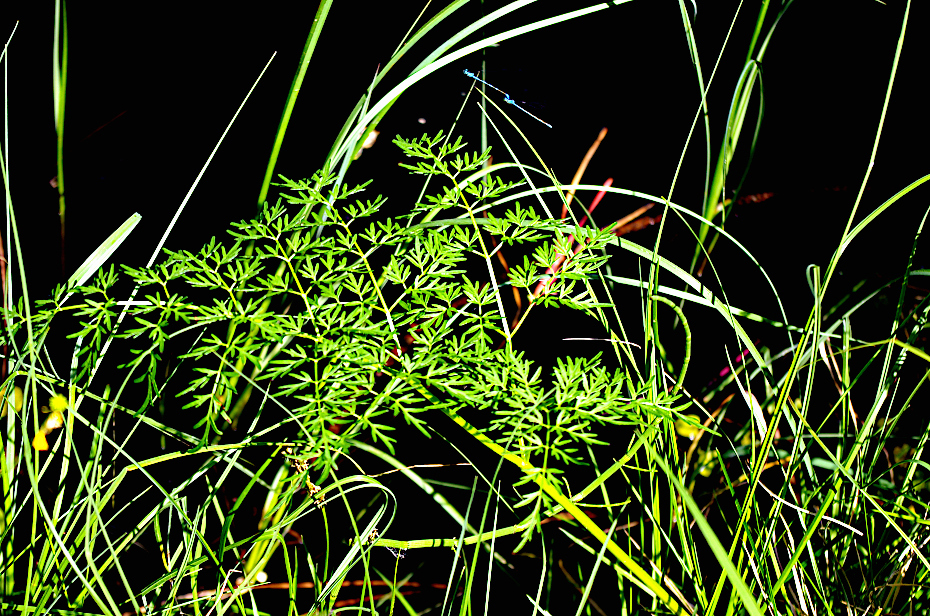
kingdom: Animalia
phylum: Arthropoda
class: Insecta
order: Odonata
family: Coenagrionidae
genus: Coenagrion
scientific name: Coenagrion johanssoni
